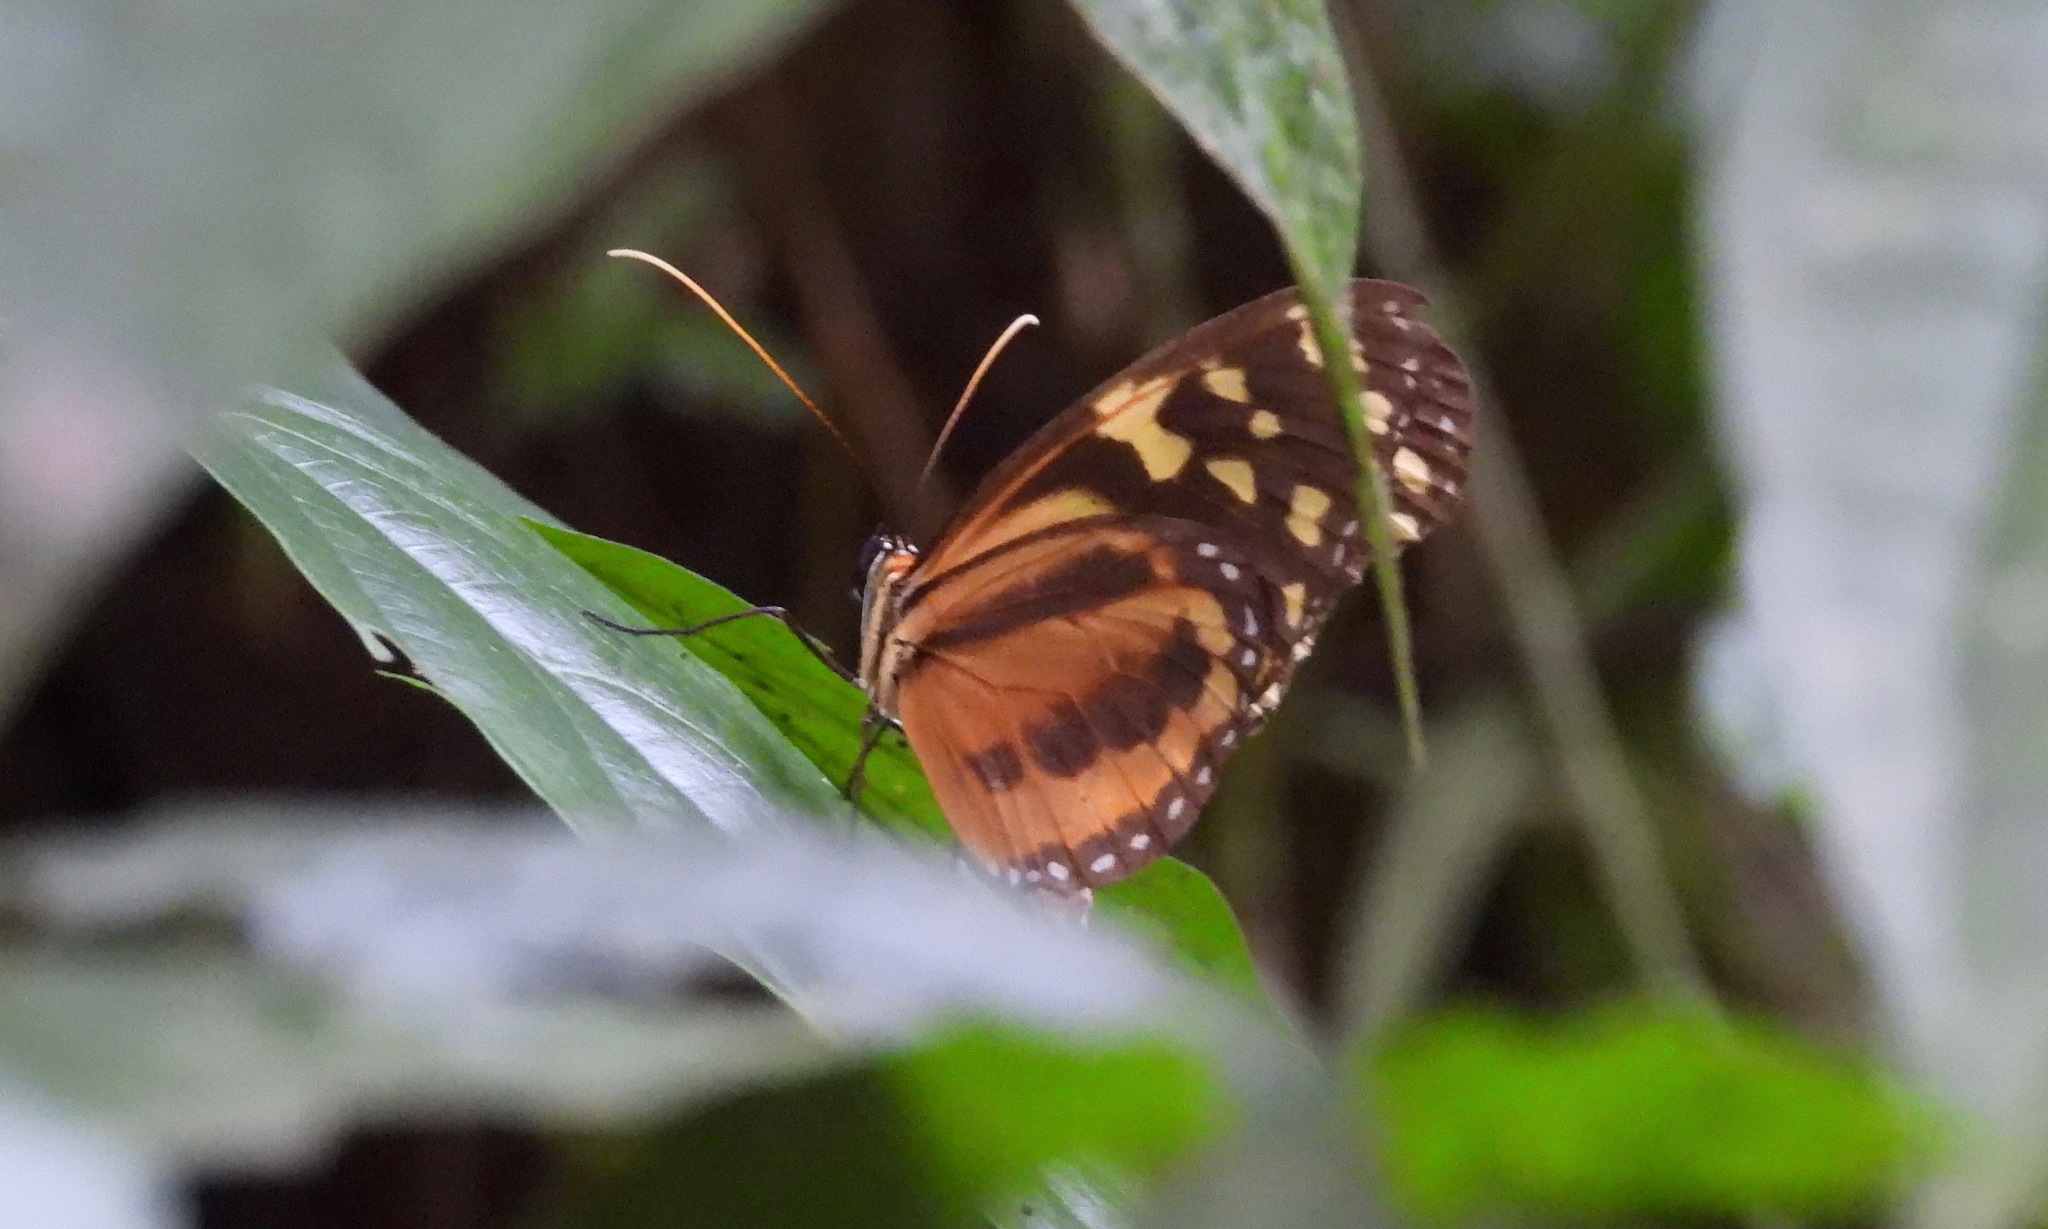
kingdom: Animalia
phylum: Arthropoda
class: Insecta
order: Lepidoptera
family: Nymphalidae
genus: Tithorea
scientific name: Tithorea harmonia
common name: Harmonia tigerwing
